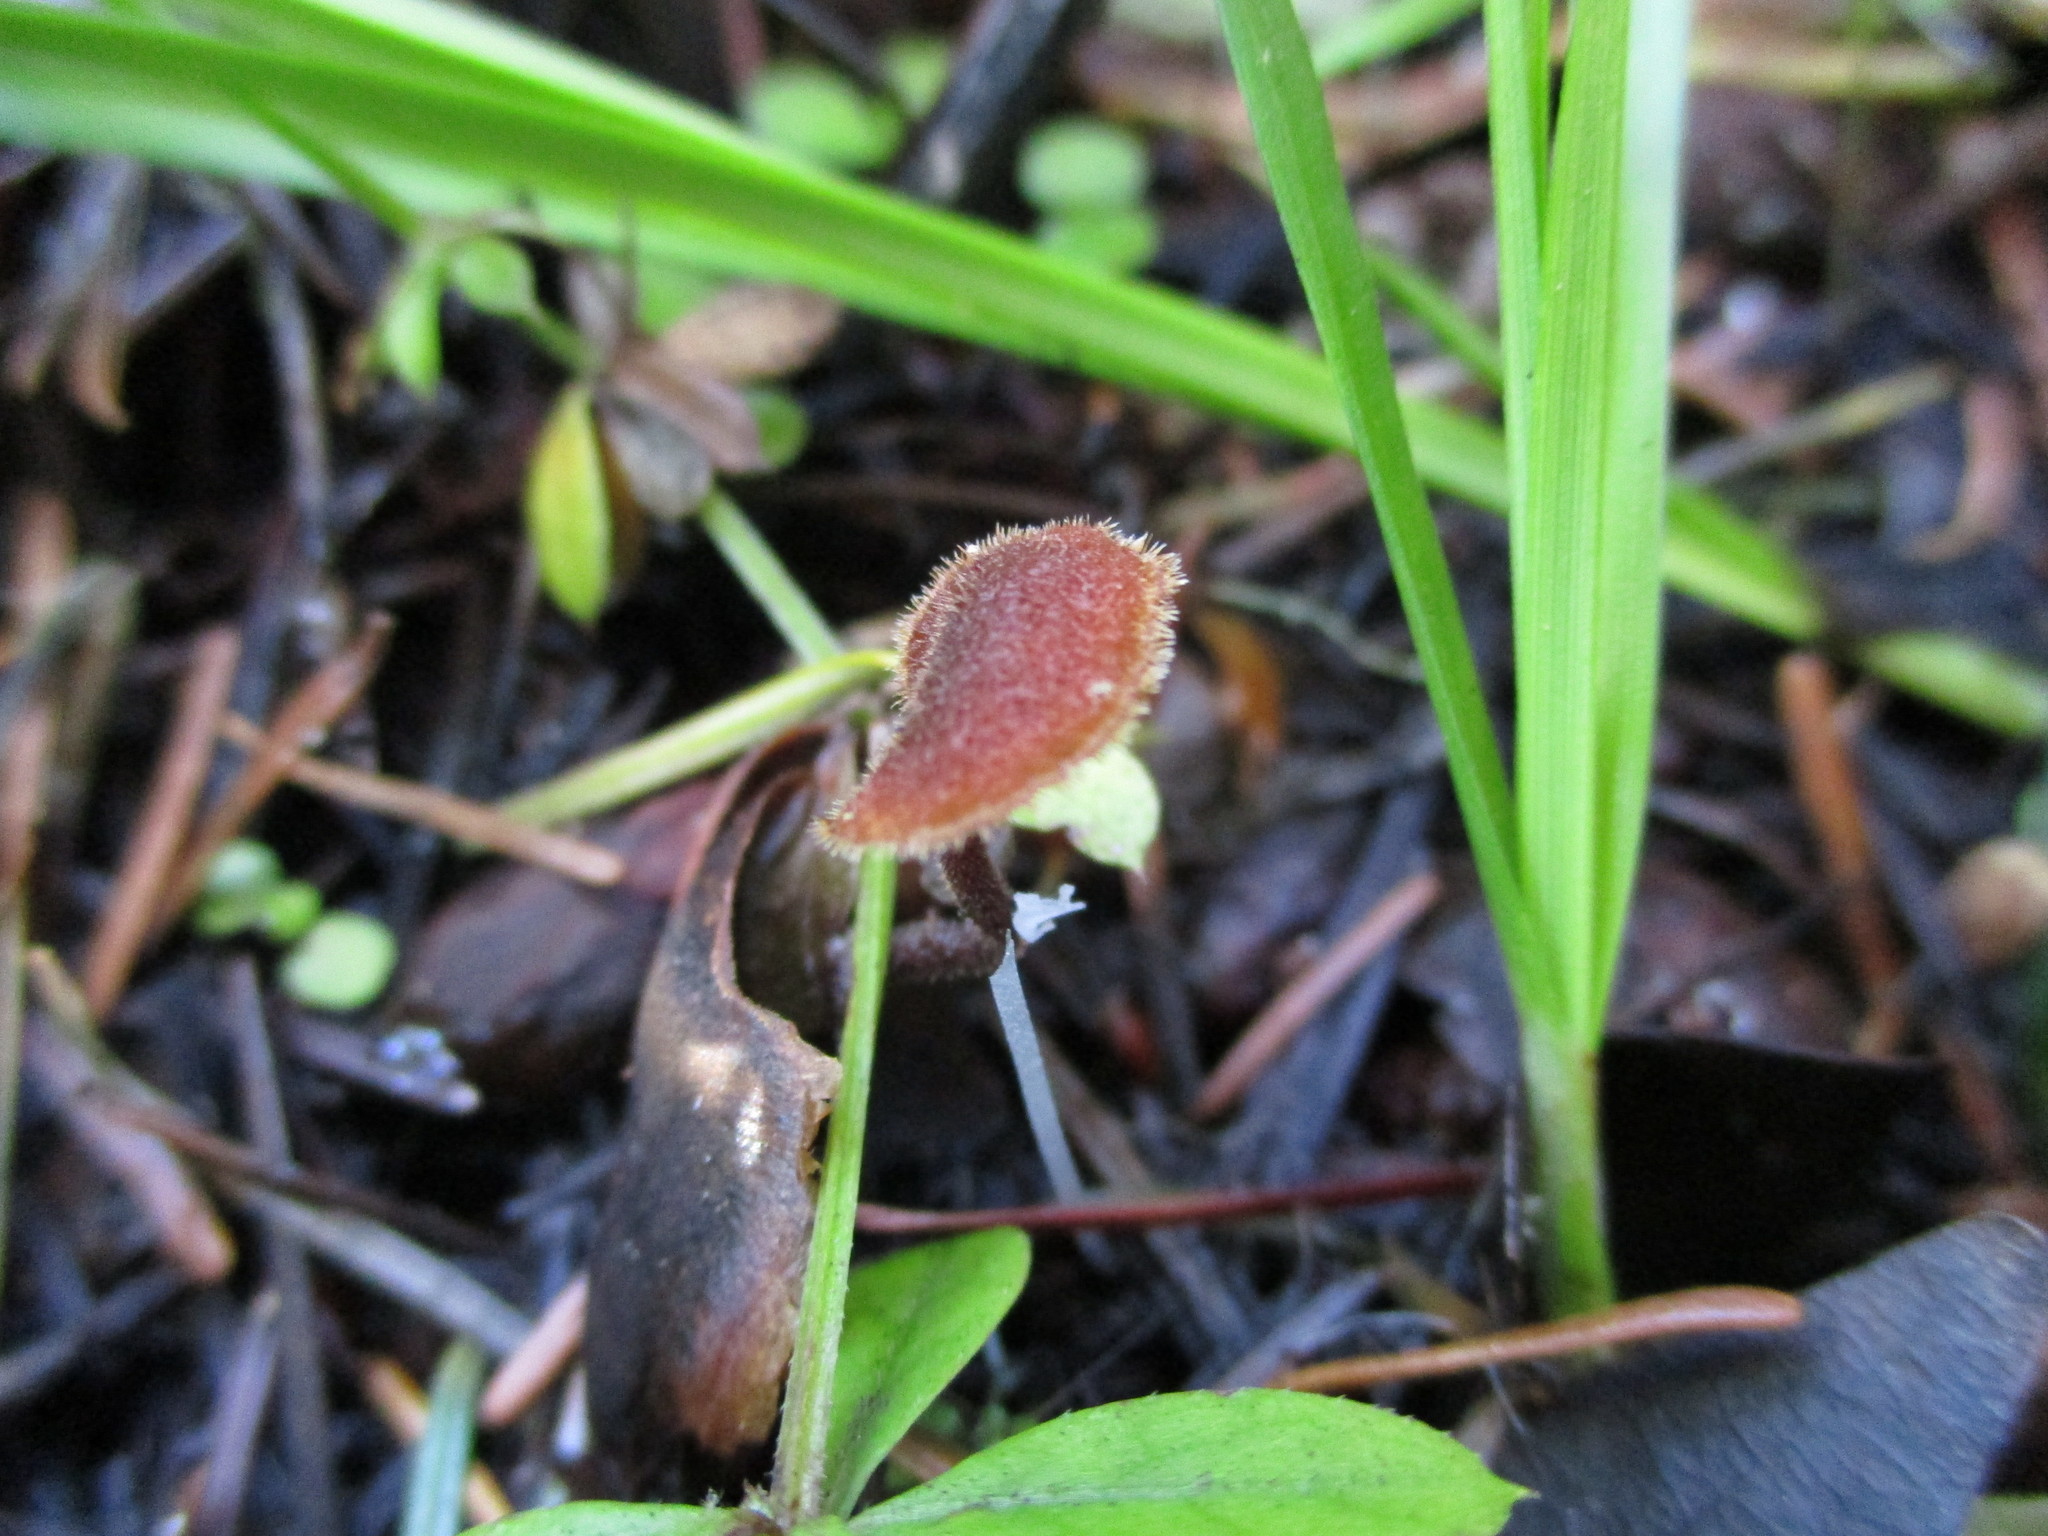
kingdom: Fungi
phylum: Basidiomycota
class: Agaricomycetes
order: Russulales
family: Auriscalpiaceae
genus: Auriscalpium
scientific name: Auriscalpium vulgare
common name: Earpick fungus
